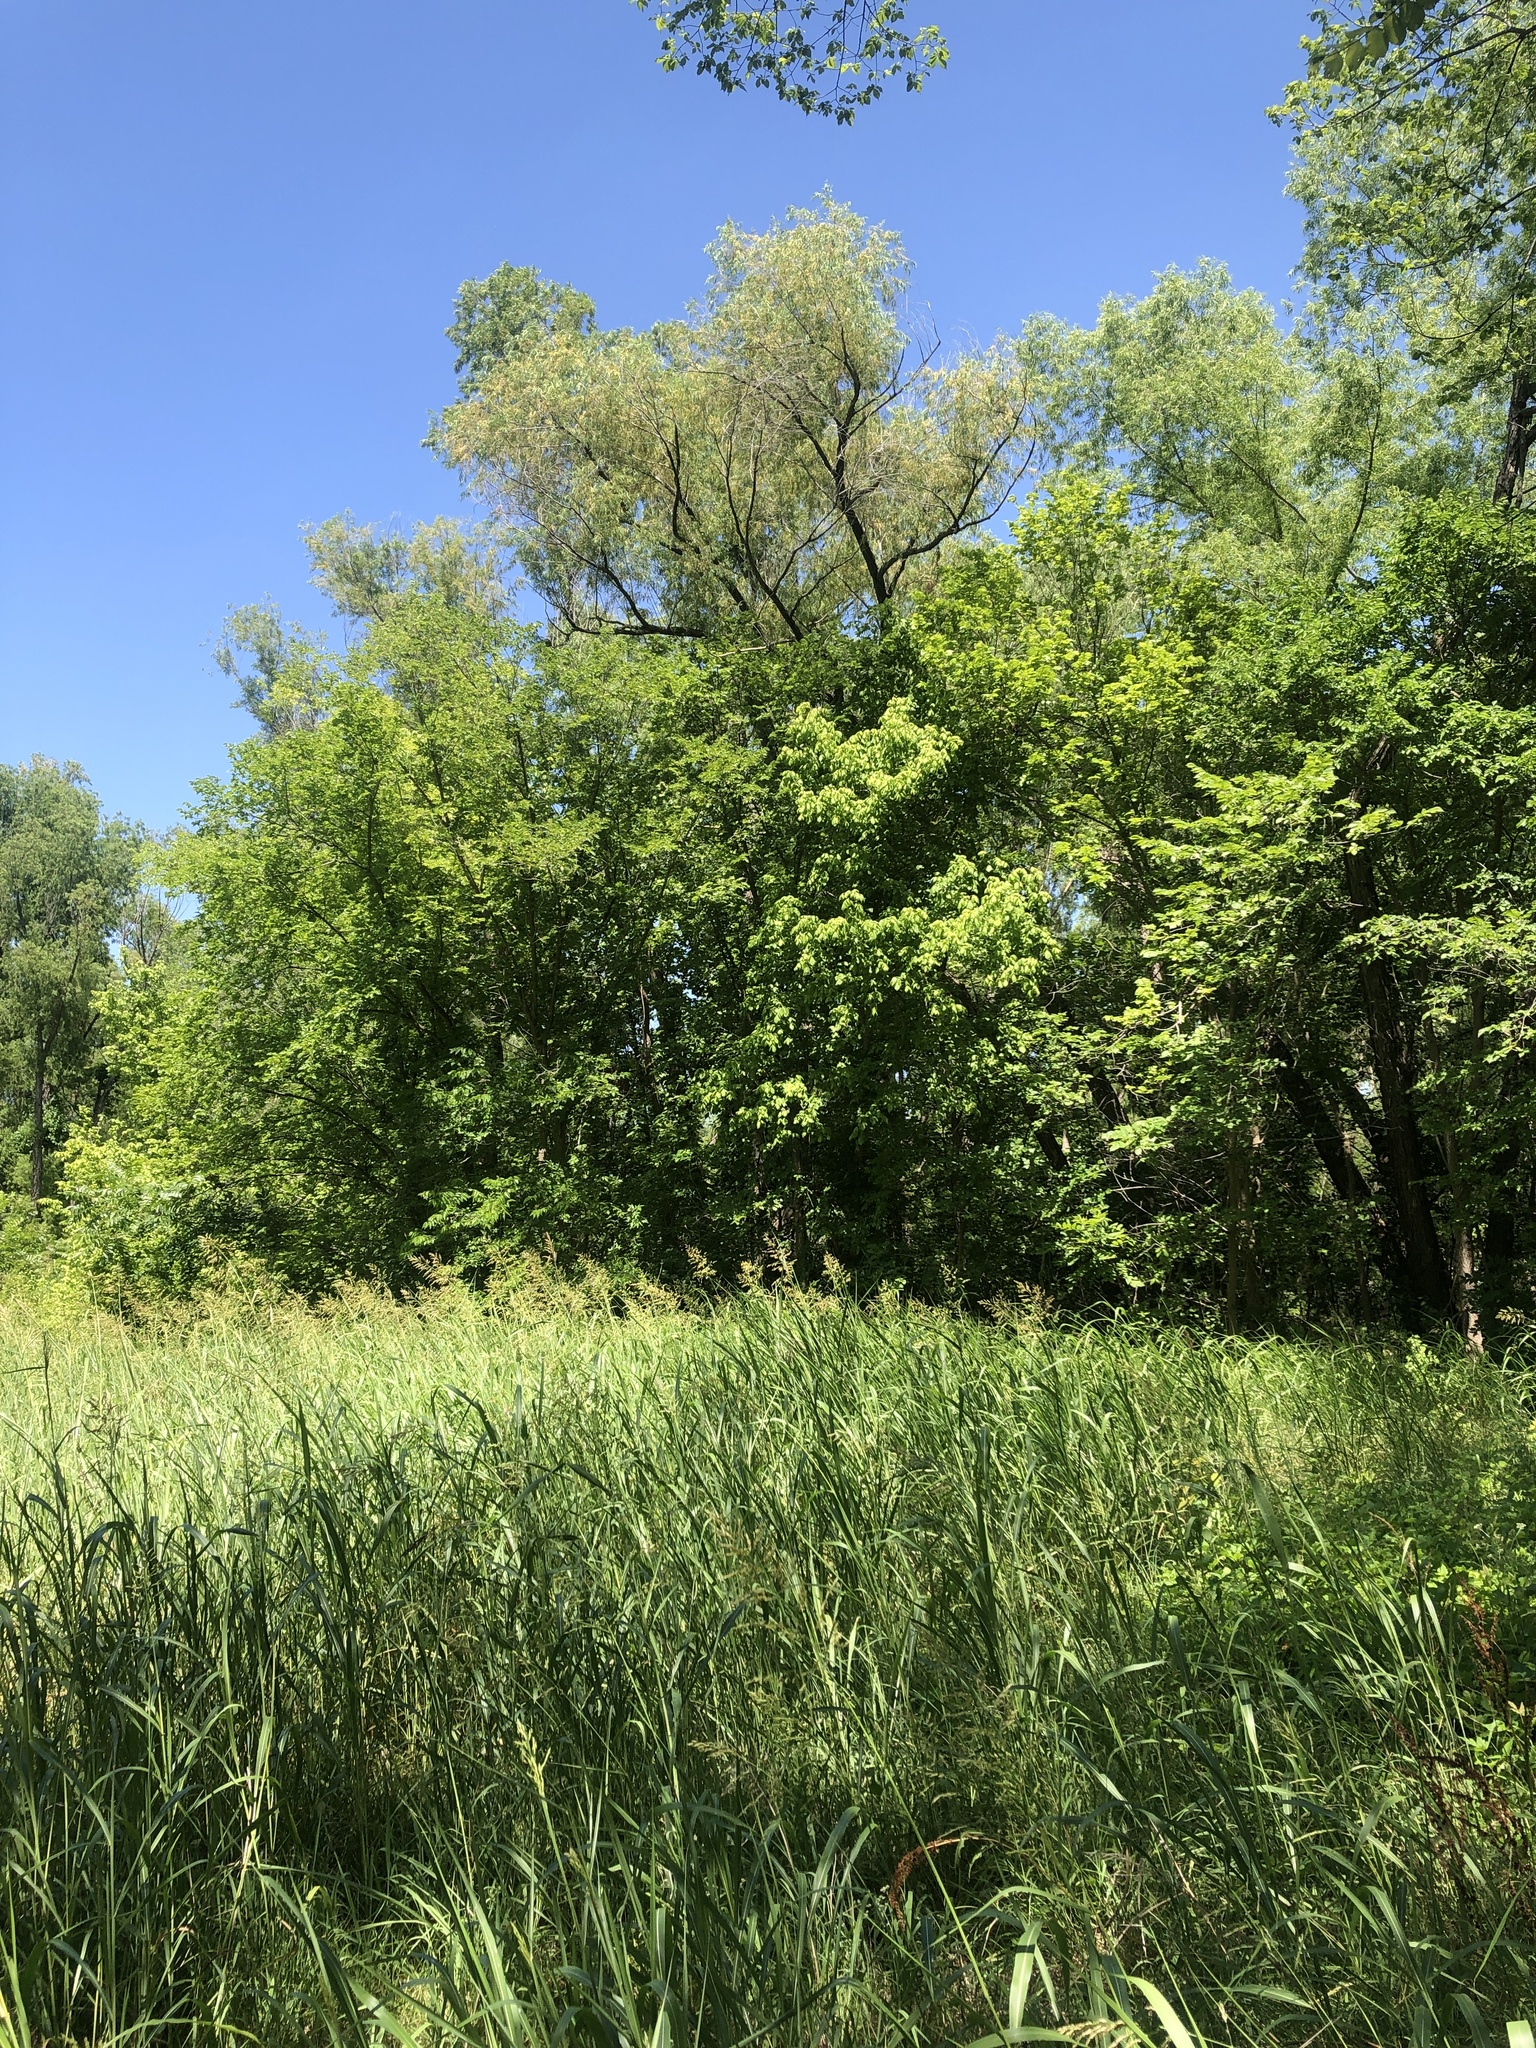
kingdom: Animalia
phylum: Chordata
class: Aves
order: Passeriformes
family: Cardinalidae
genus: Passerina
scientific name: Passerina cyanea
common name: Indigo bunting
